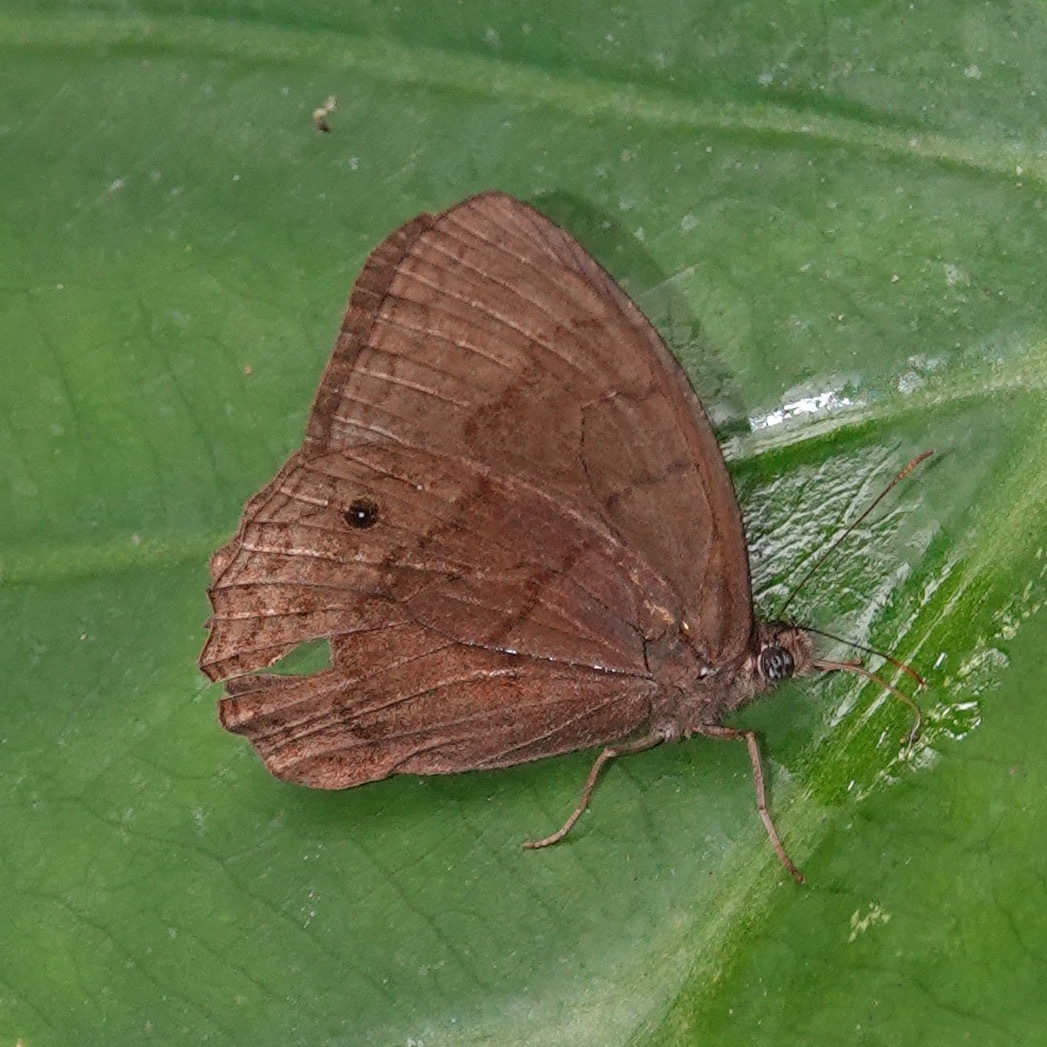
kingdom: Animalia
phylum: Arthropoda
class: Insecta
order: Lepidoptera
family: Nymphalidae
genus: Harjesia
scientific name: Harjesia obscura
